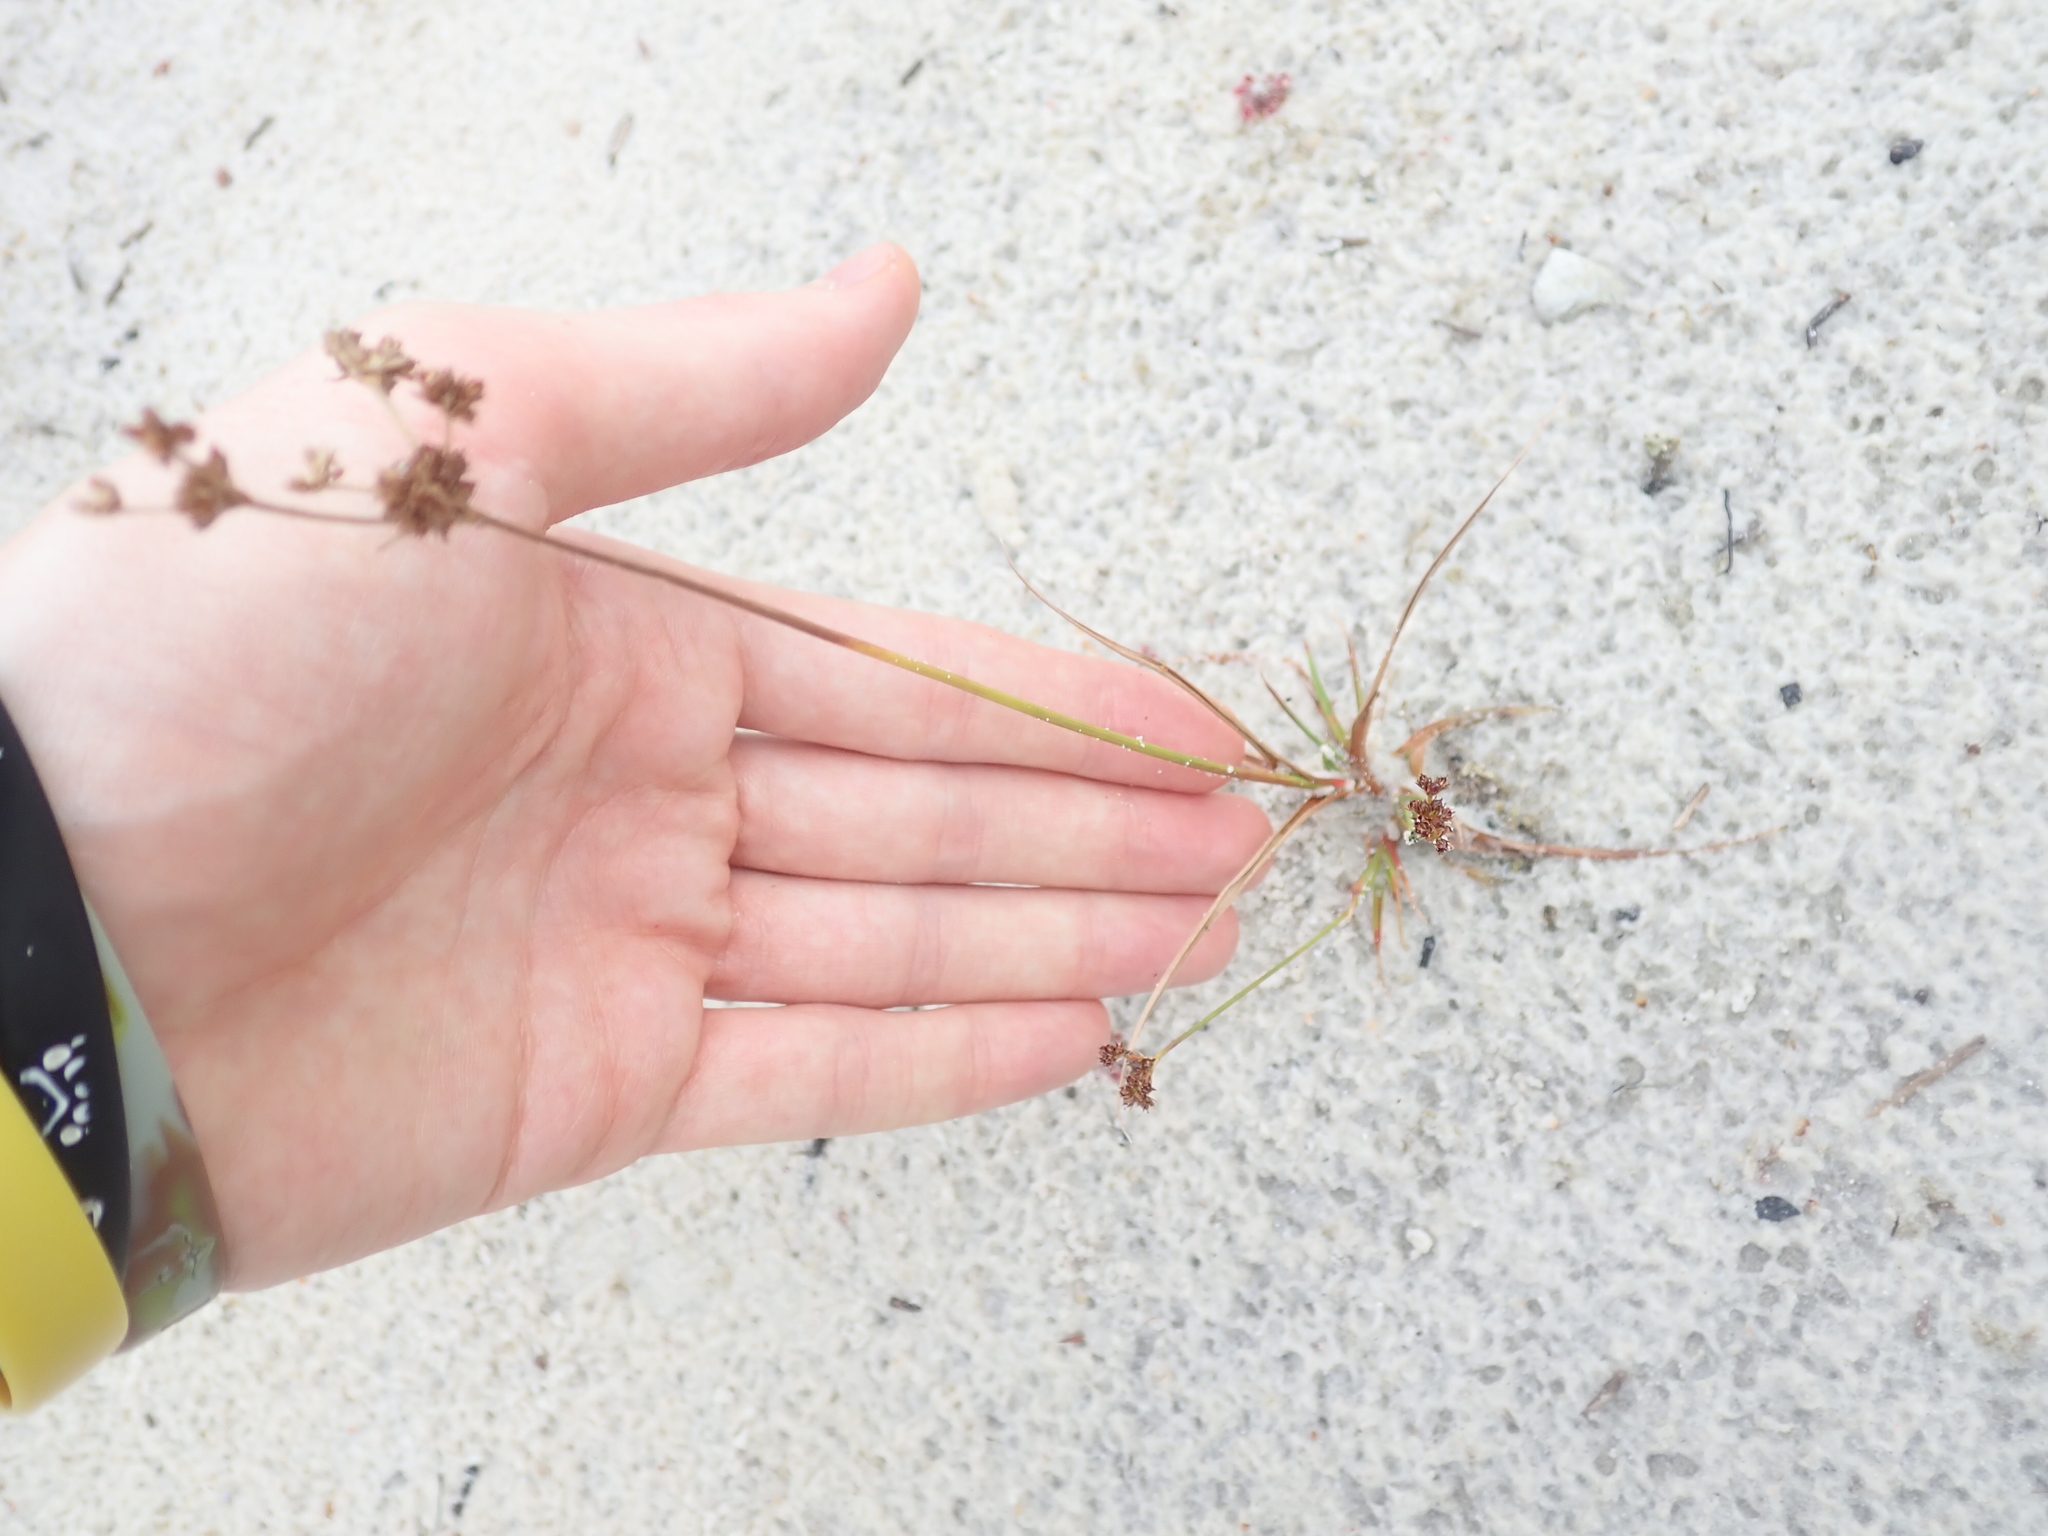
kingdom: Plantae
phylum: Tracheophyta
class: Liliopsida
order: Poales
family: Juncaceae
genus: Juncus
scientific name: Juncus planifolius
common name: Broadleaf rush
